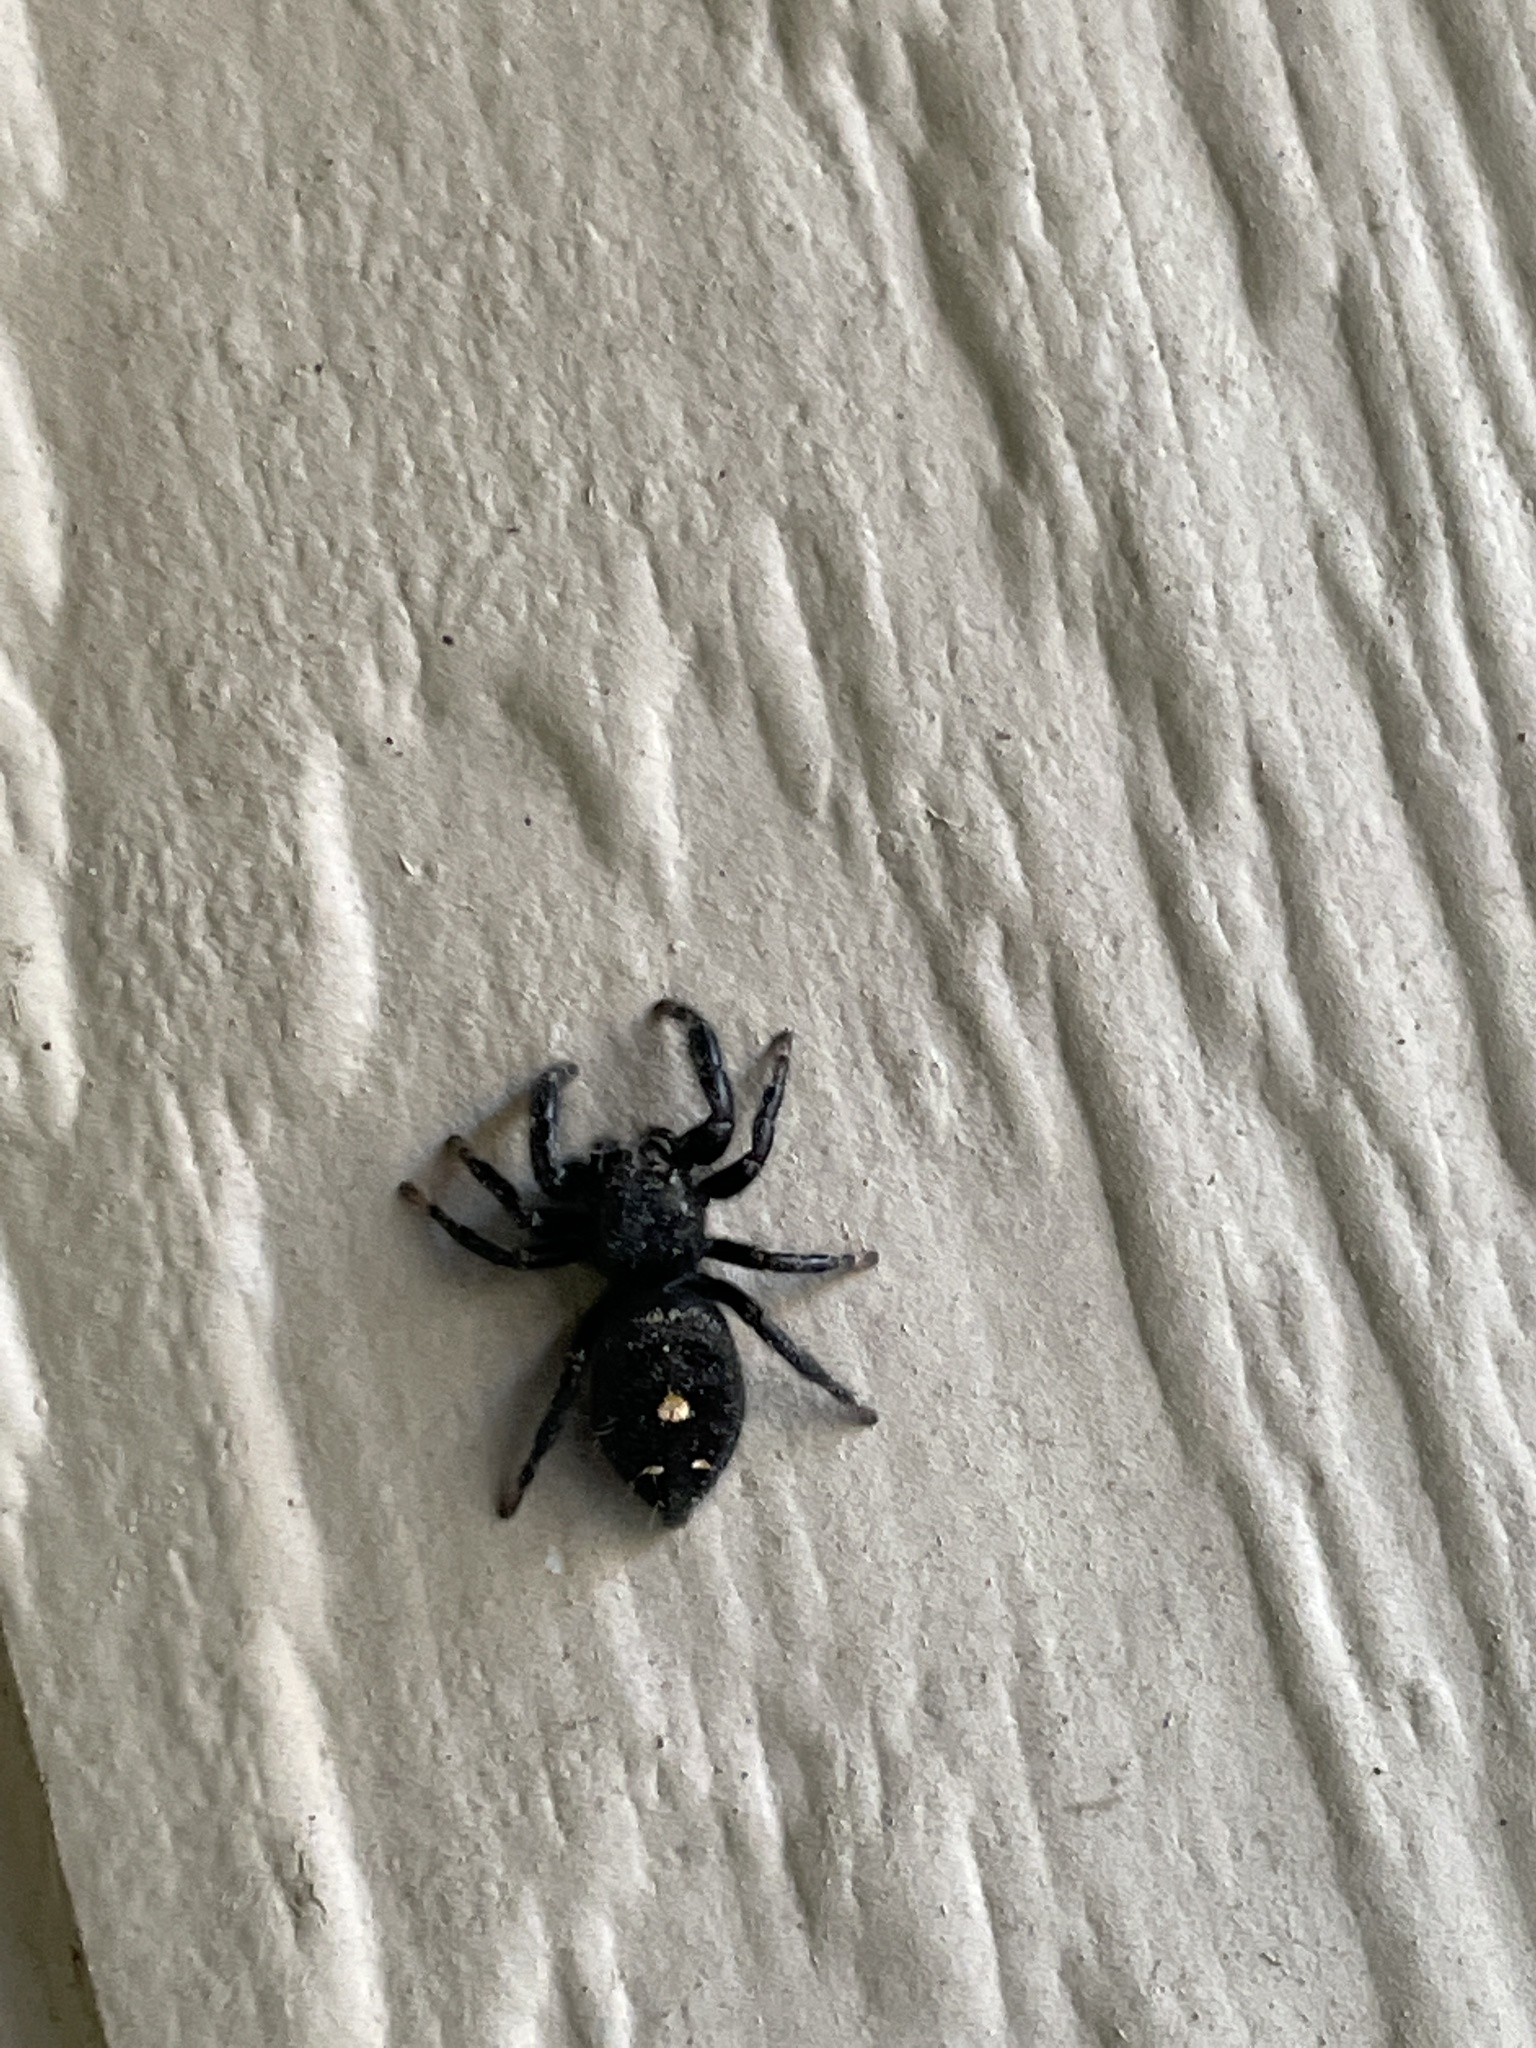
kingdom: Animalia
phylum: Arthropoda
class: Arachnida
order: Araneae
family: Salticidae
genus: Phidippus
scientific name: Phidippus audax
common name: Bold jumper
